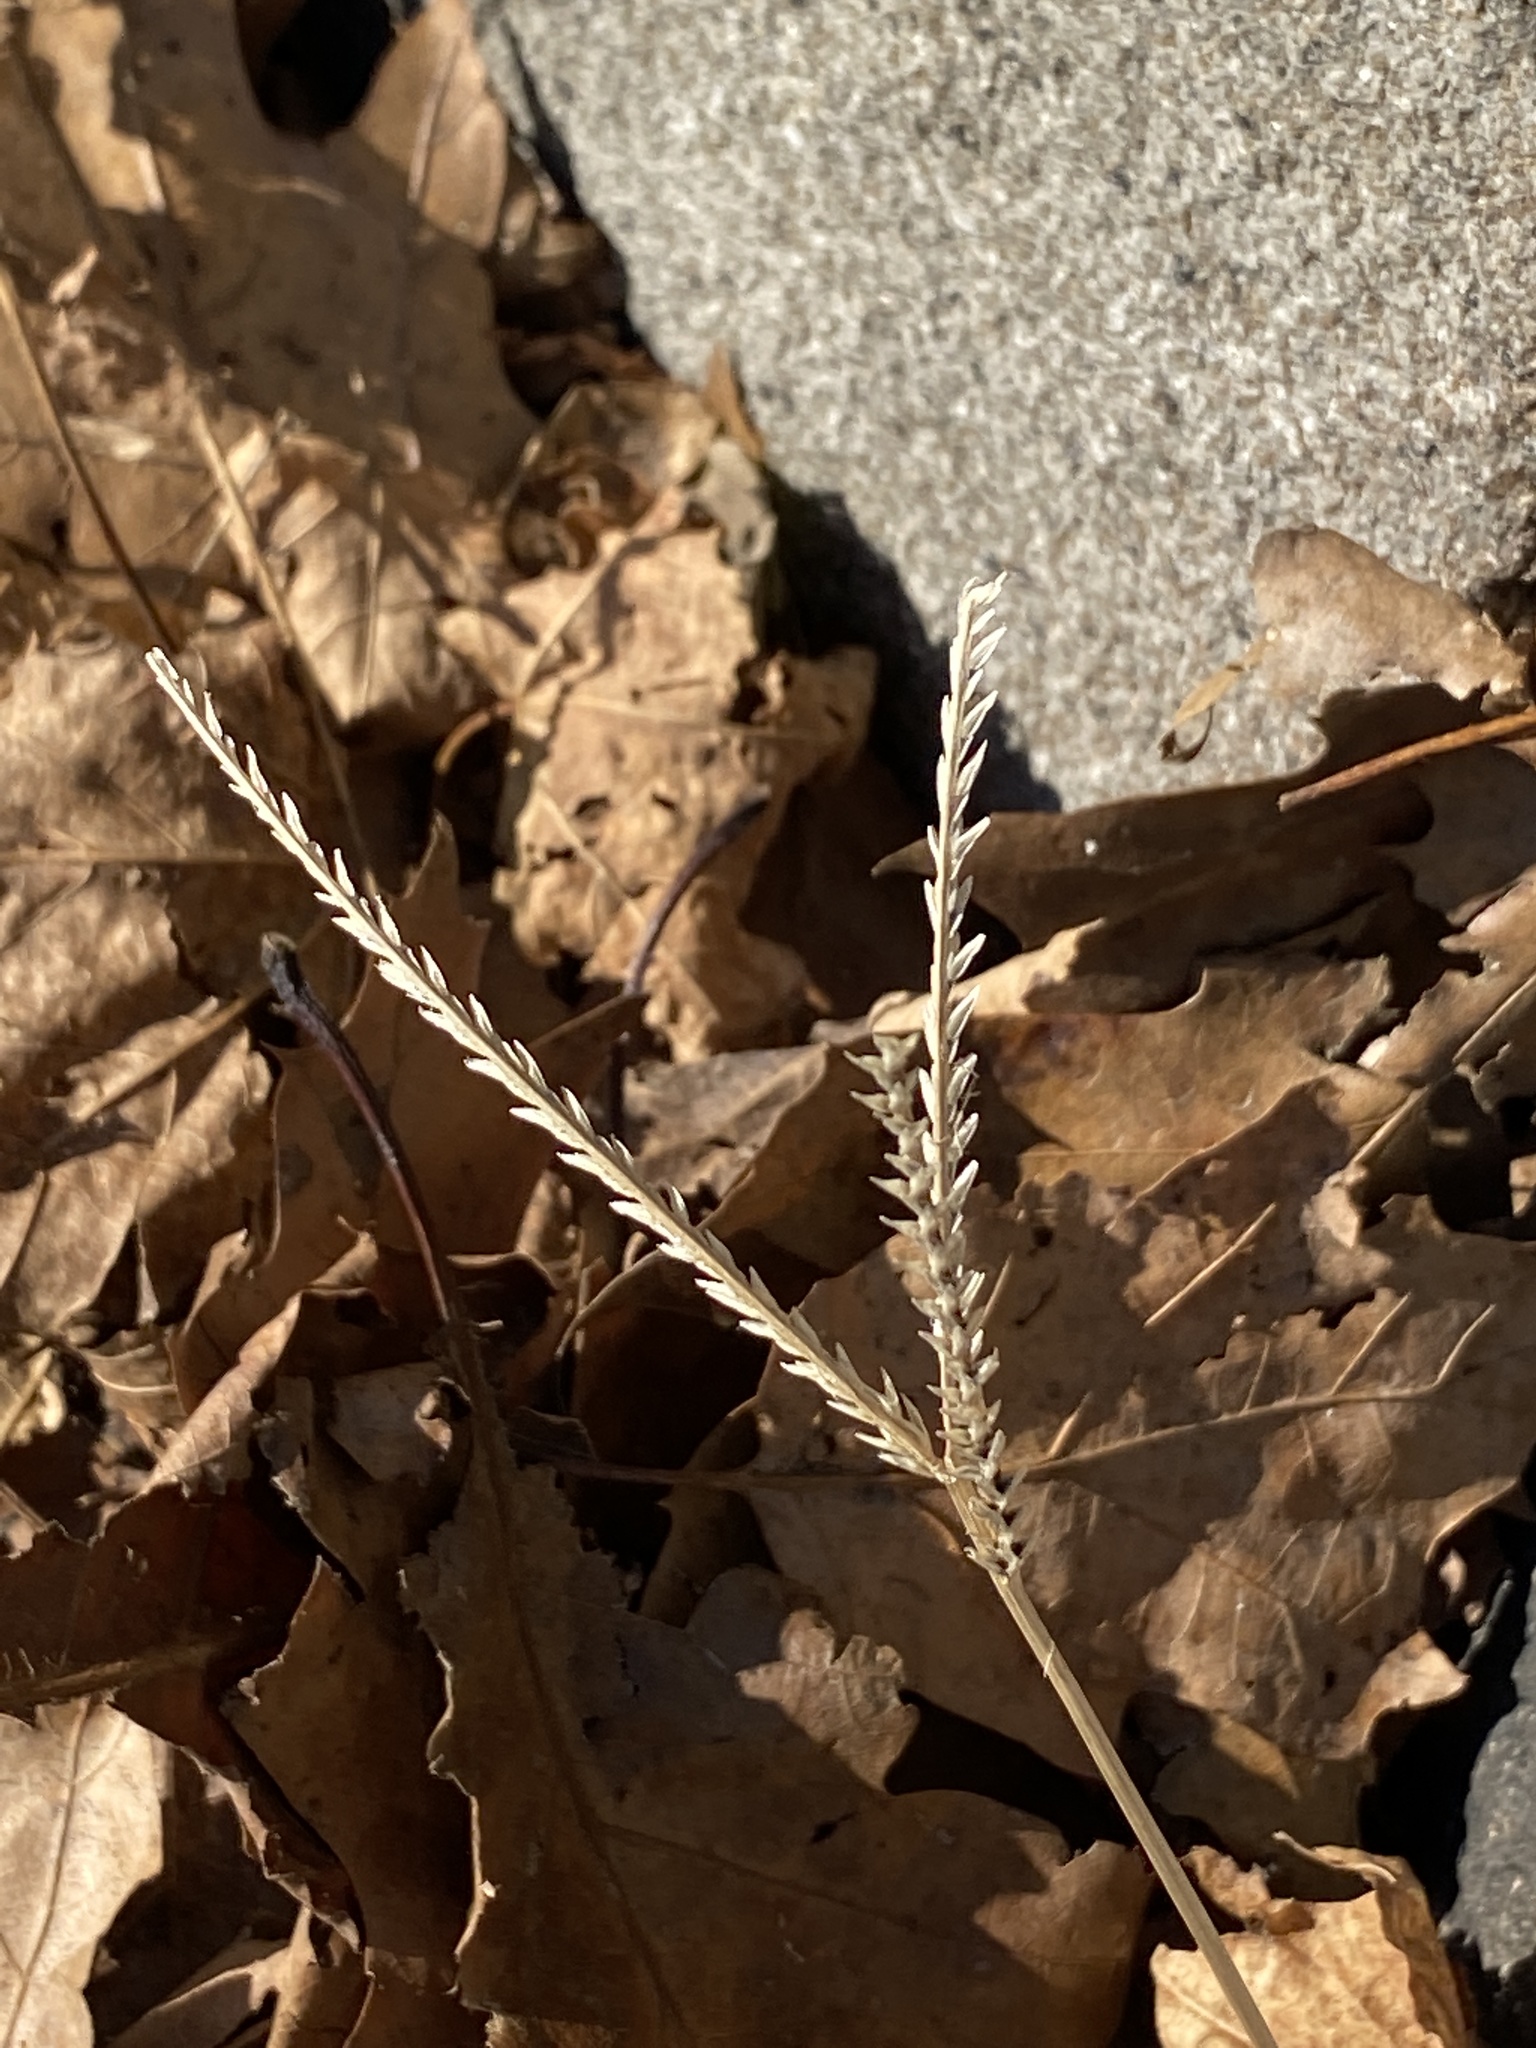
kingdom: Plantae
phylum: Tracheophyta
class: Liliopsida
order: Poales
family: Poaceae
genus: Eleusine
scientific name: Eleusine indica
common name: Yard-grass
